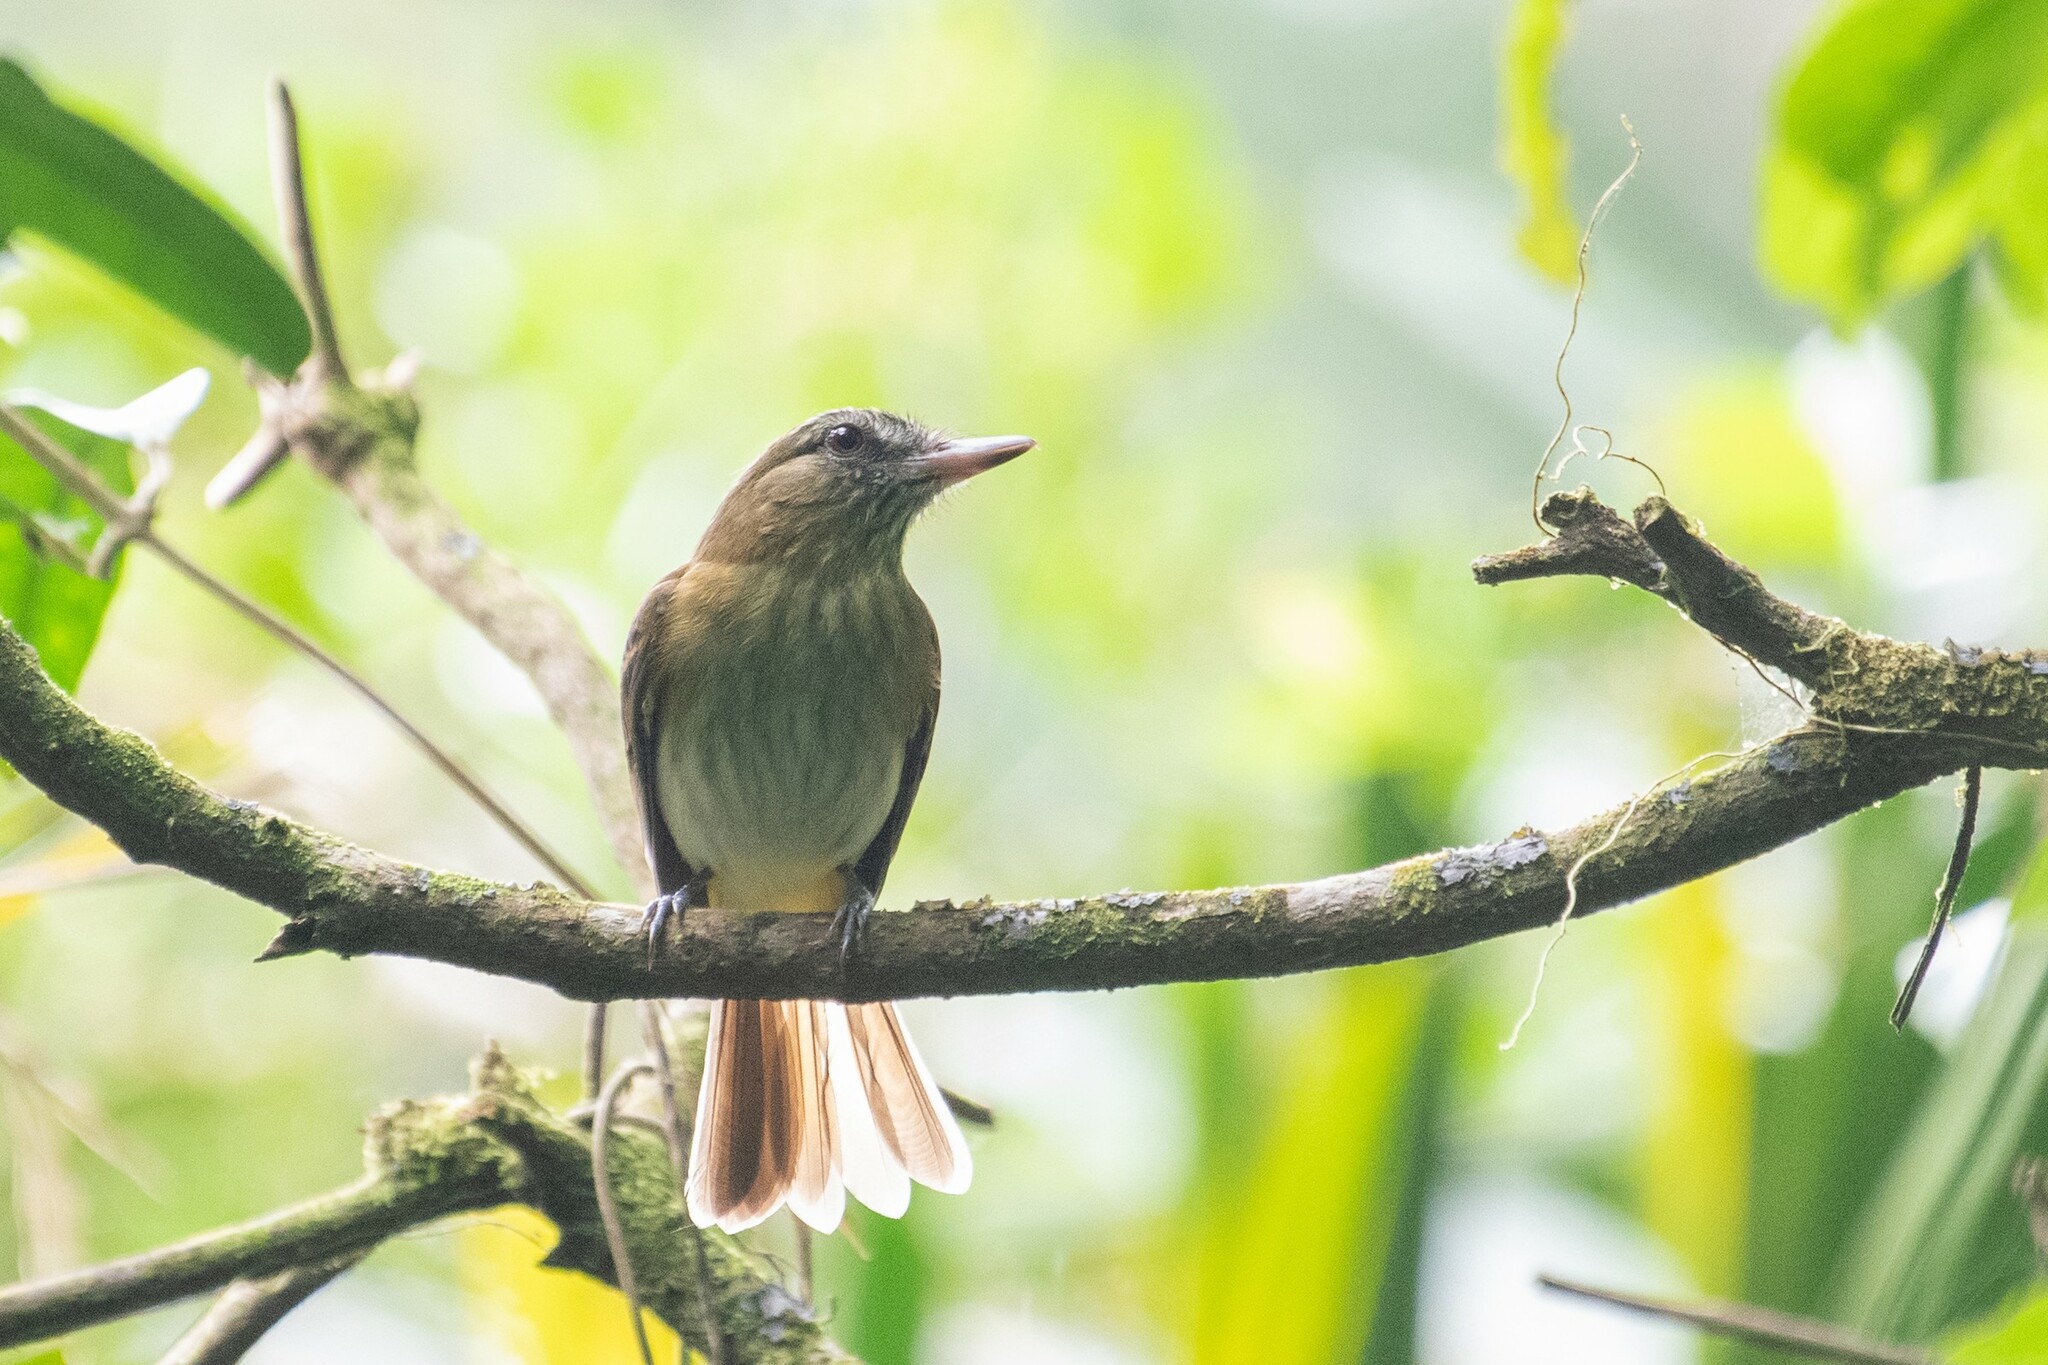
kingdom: Animalia
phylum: Chordata
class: Aves
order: Passeriformes
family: Tyrannidae
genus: Attila
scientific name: Attila spadiceus
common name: Bright-rumped attila
